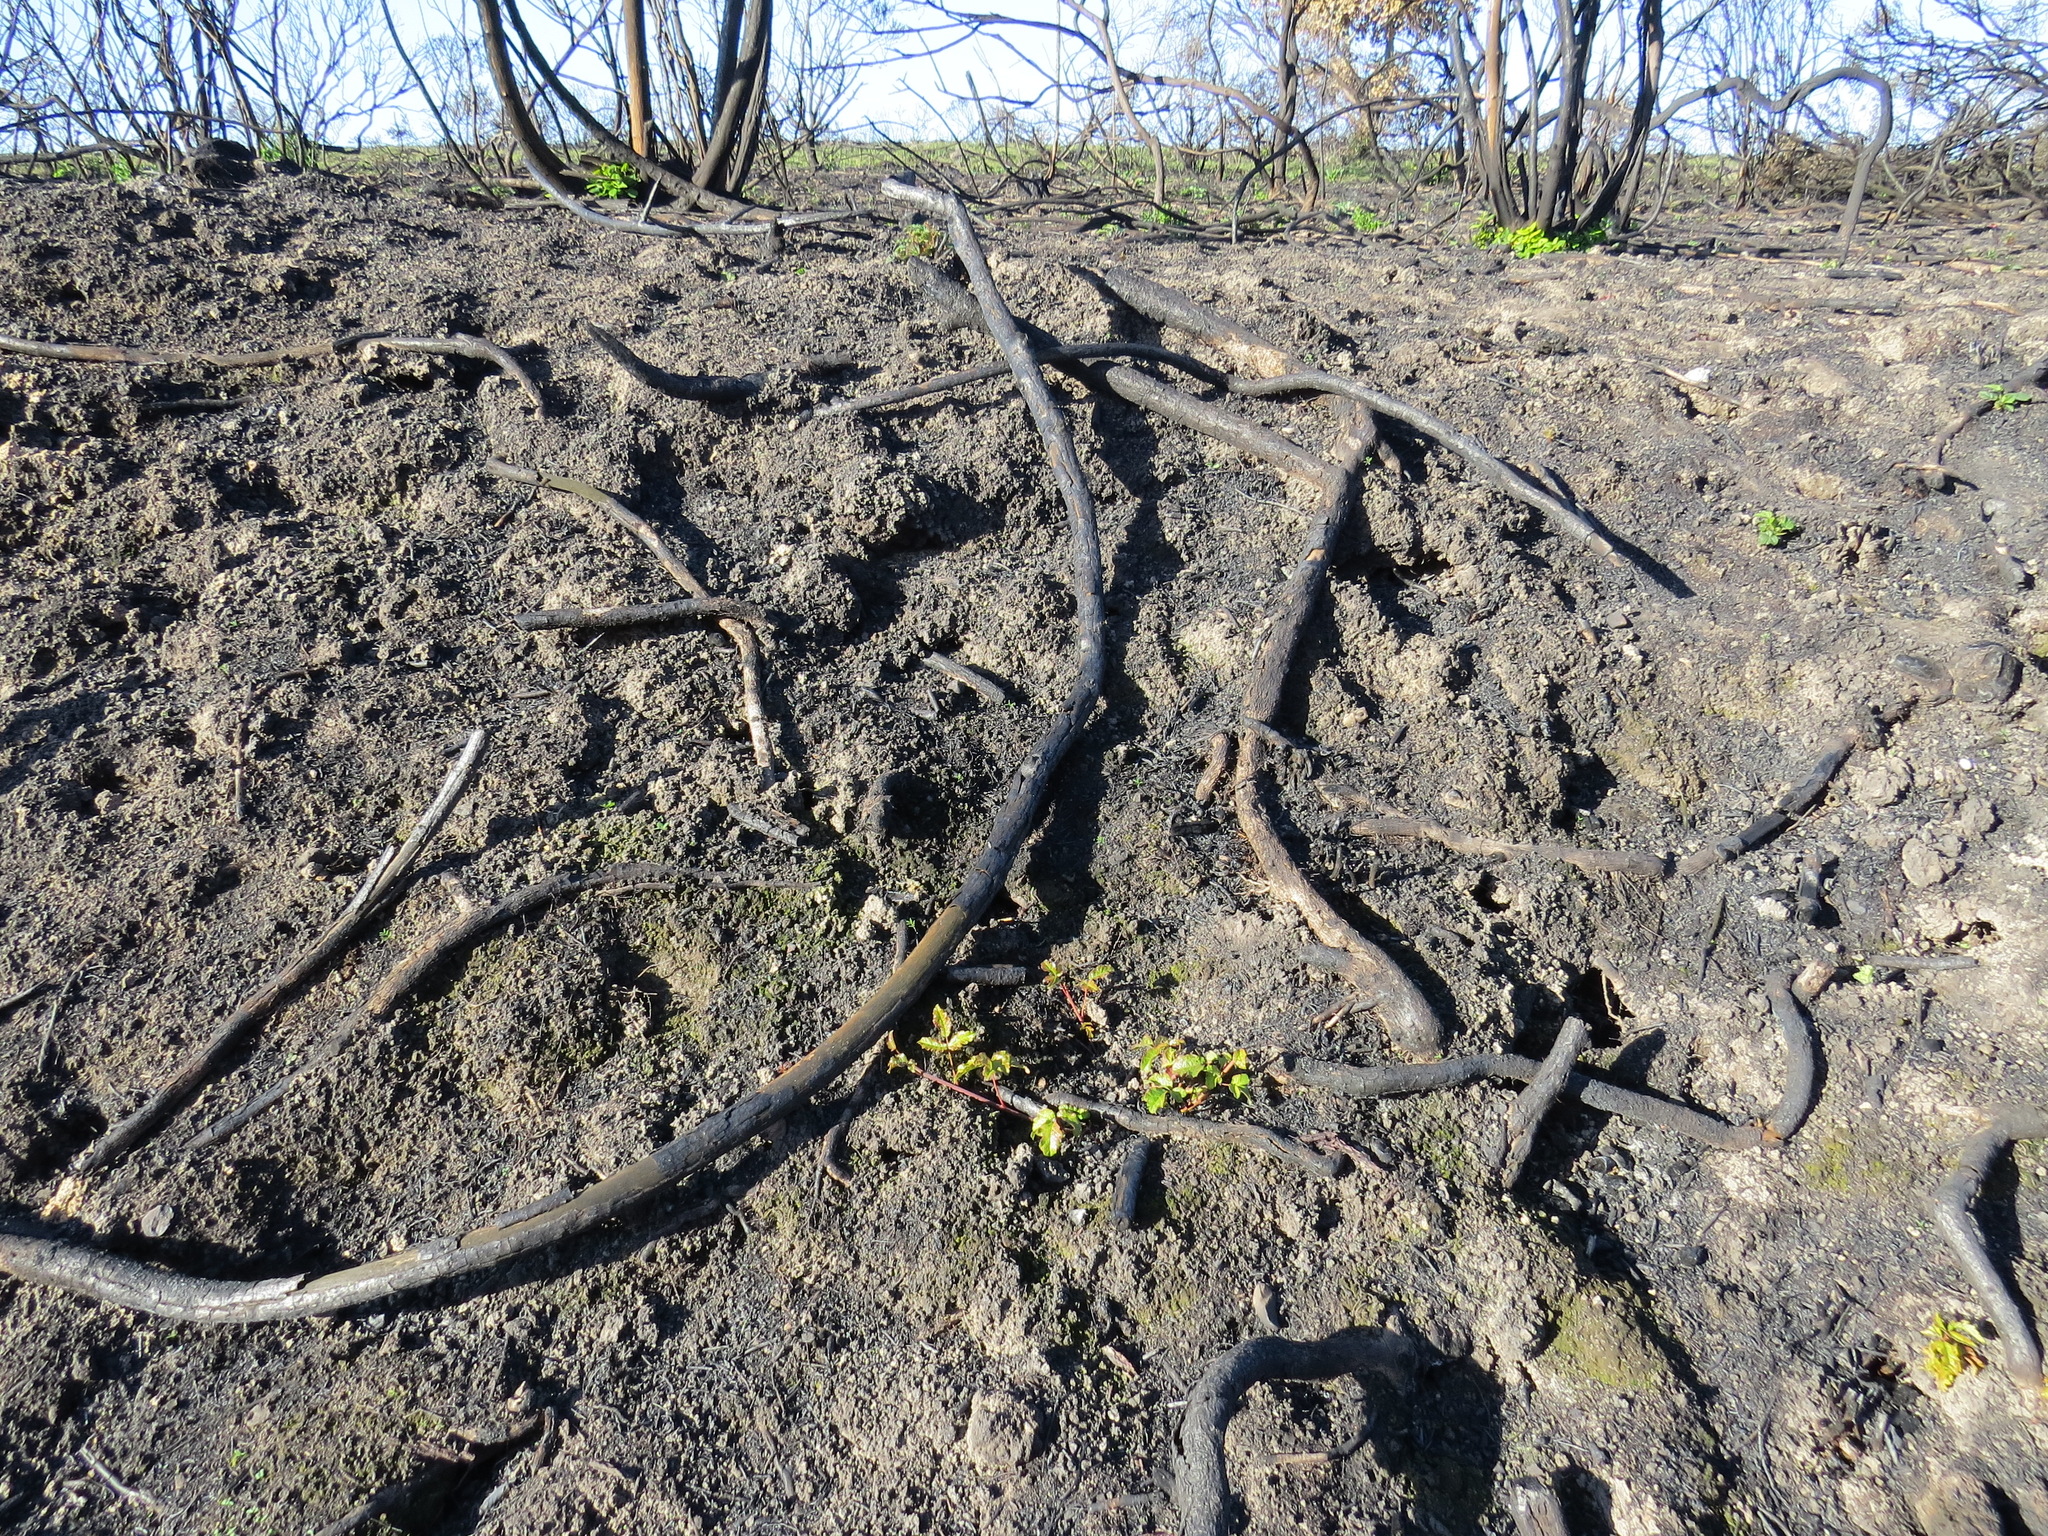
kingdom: Plantae
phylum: Tracheophyta
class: Magnoliopsida
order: Sapindales
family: Anacardiaceae
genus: Toxicodendron
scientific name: Toxicodendron diversilobum
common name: Pacific poison-oak
